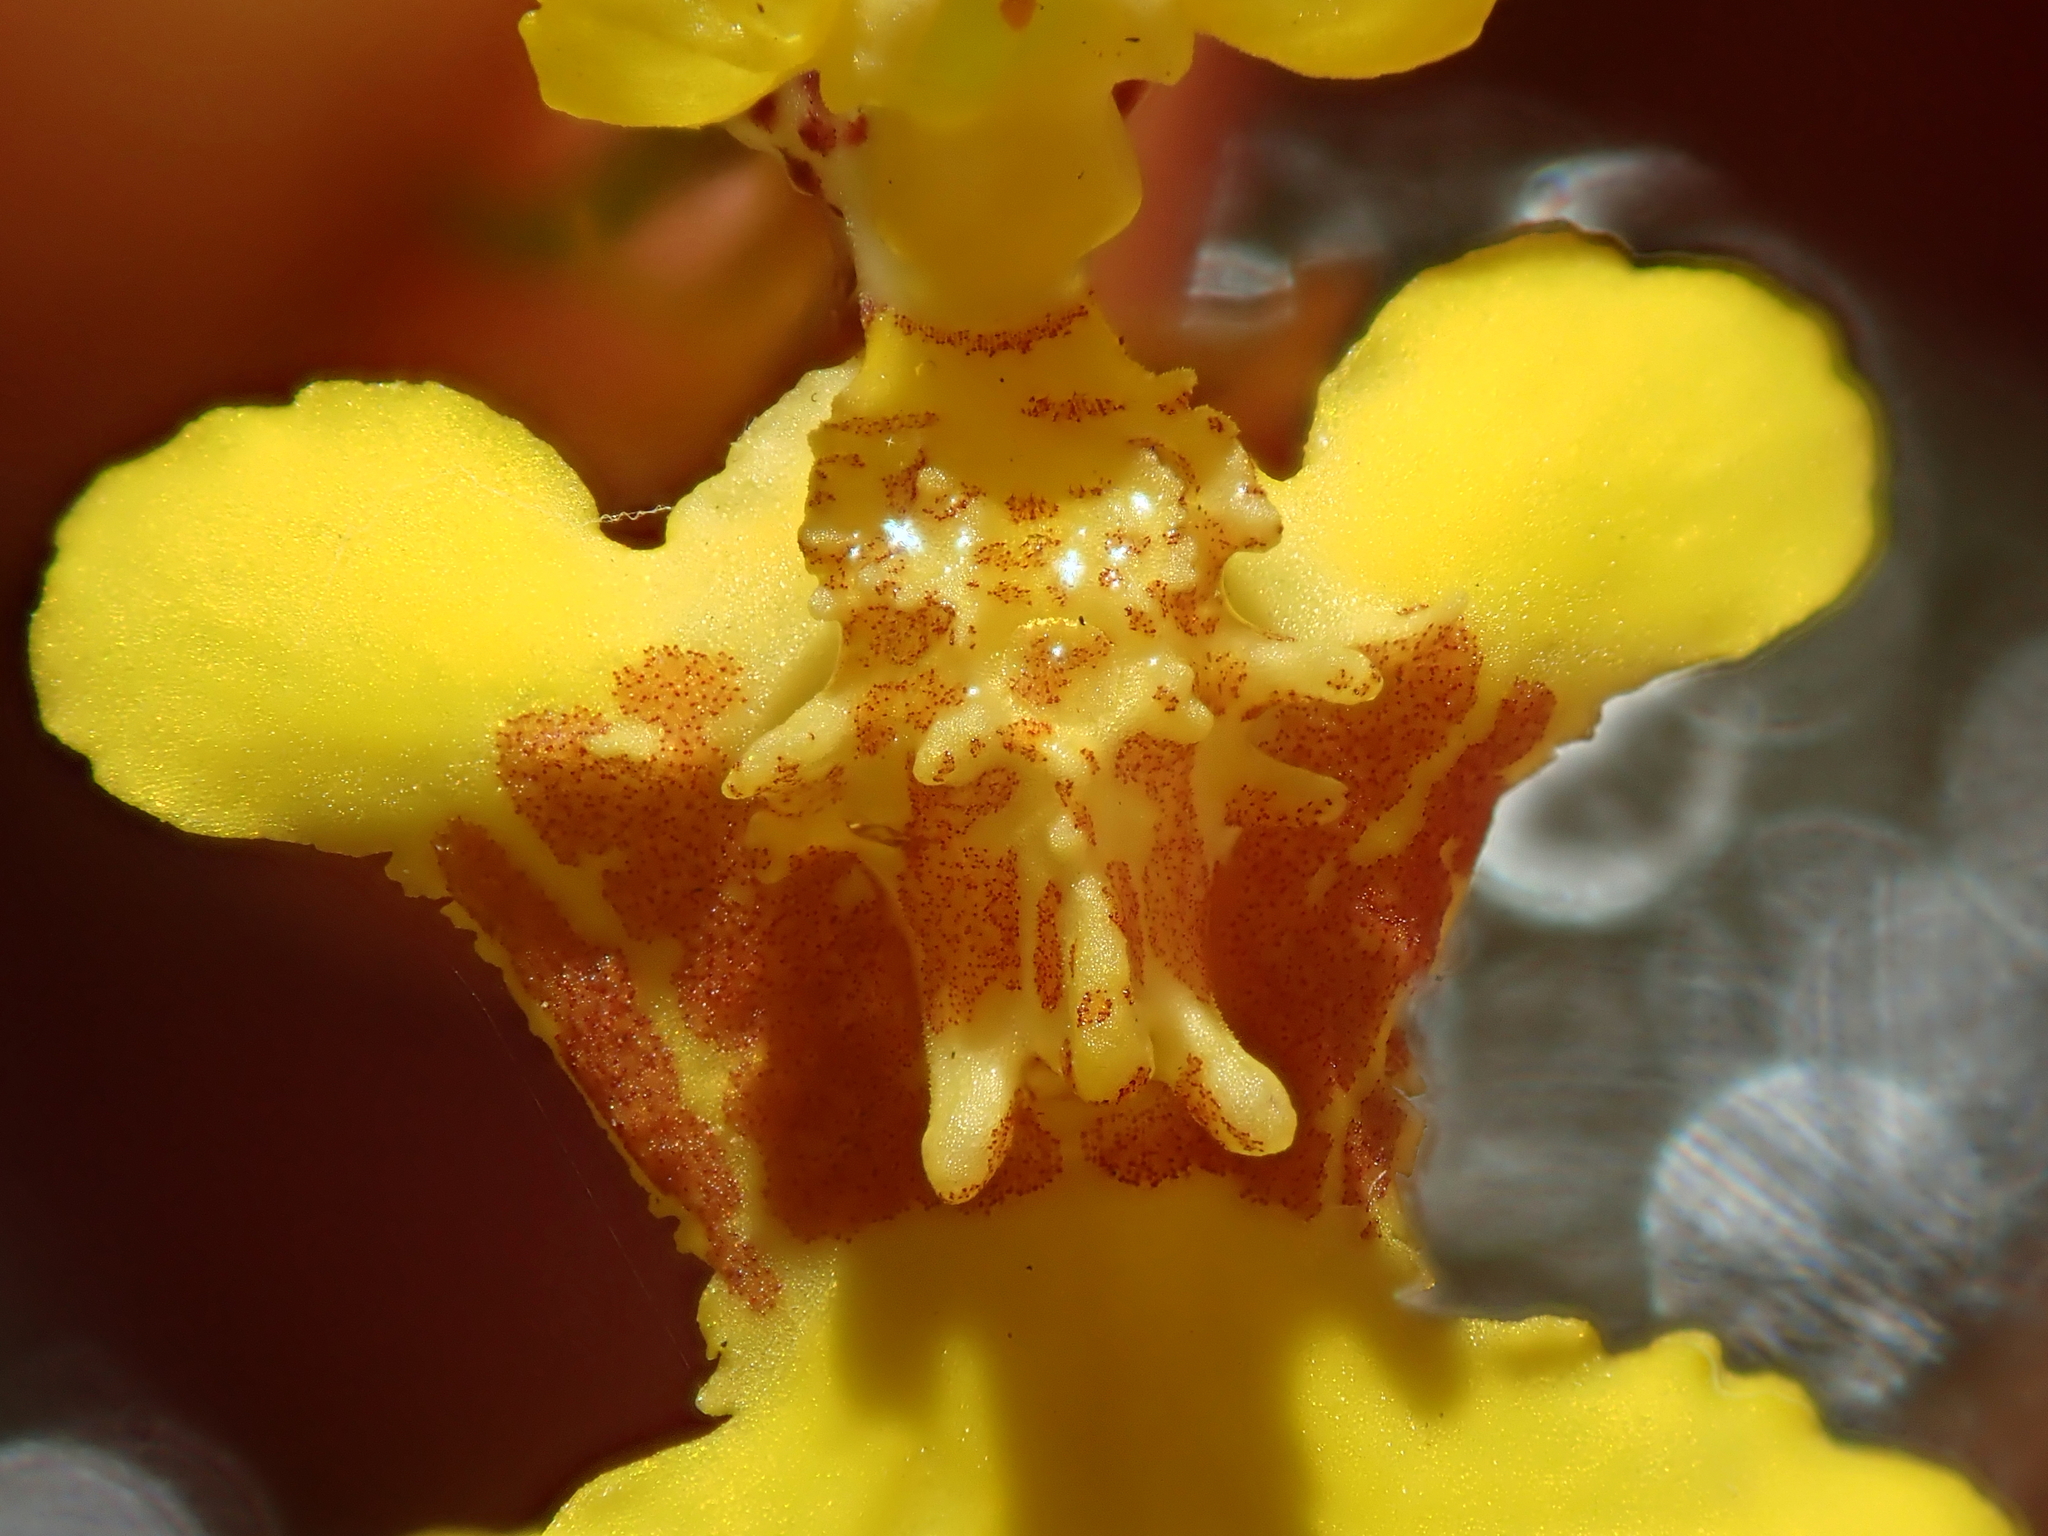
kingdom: Plantae
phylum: Tracheophyta
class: Liliopsida
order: Asparagales
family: Orchidaceae
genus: Gomesa
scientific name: Gomesa macropetala
